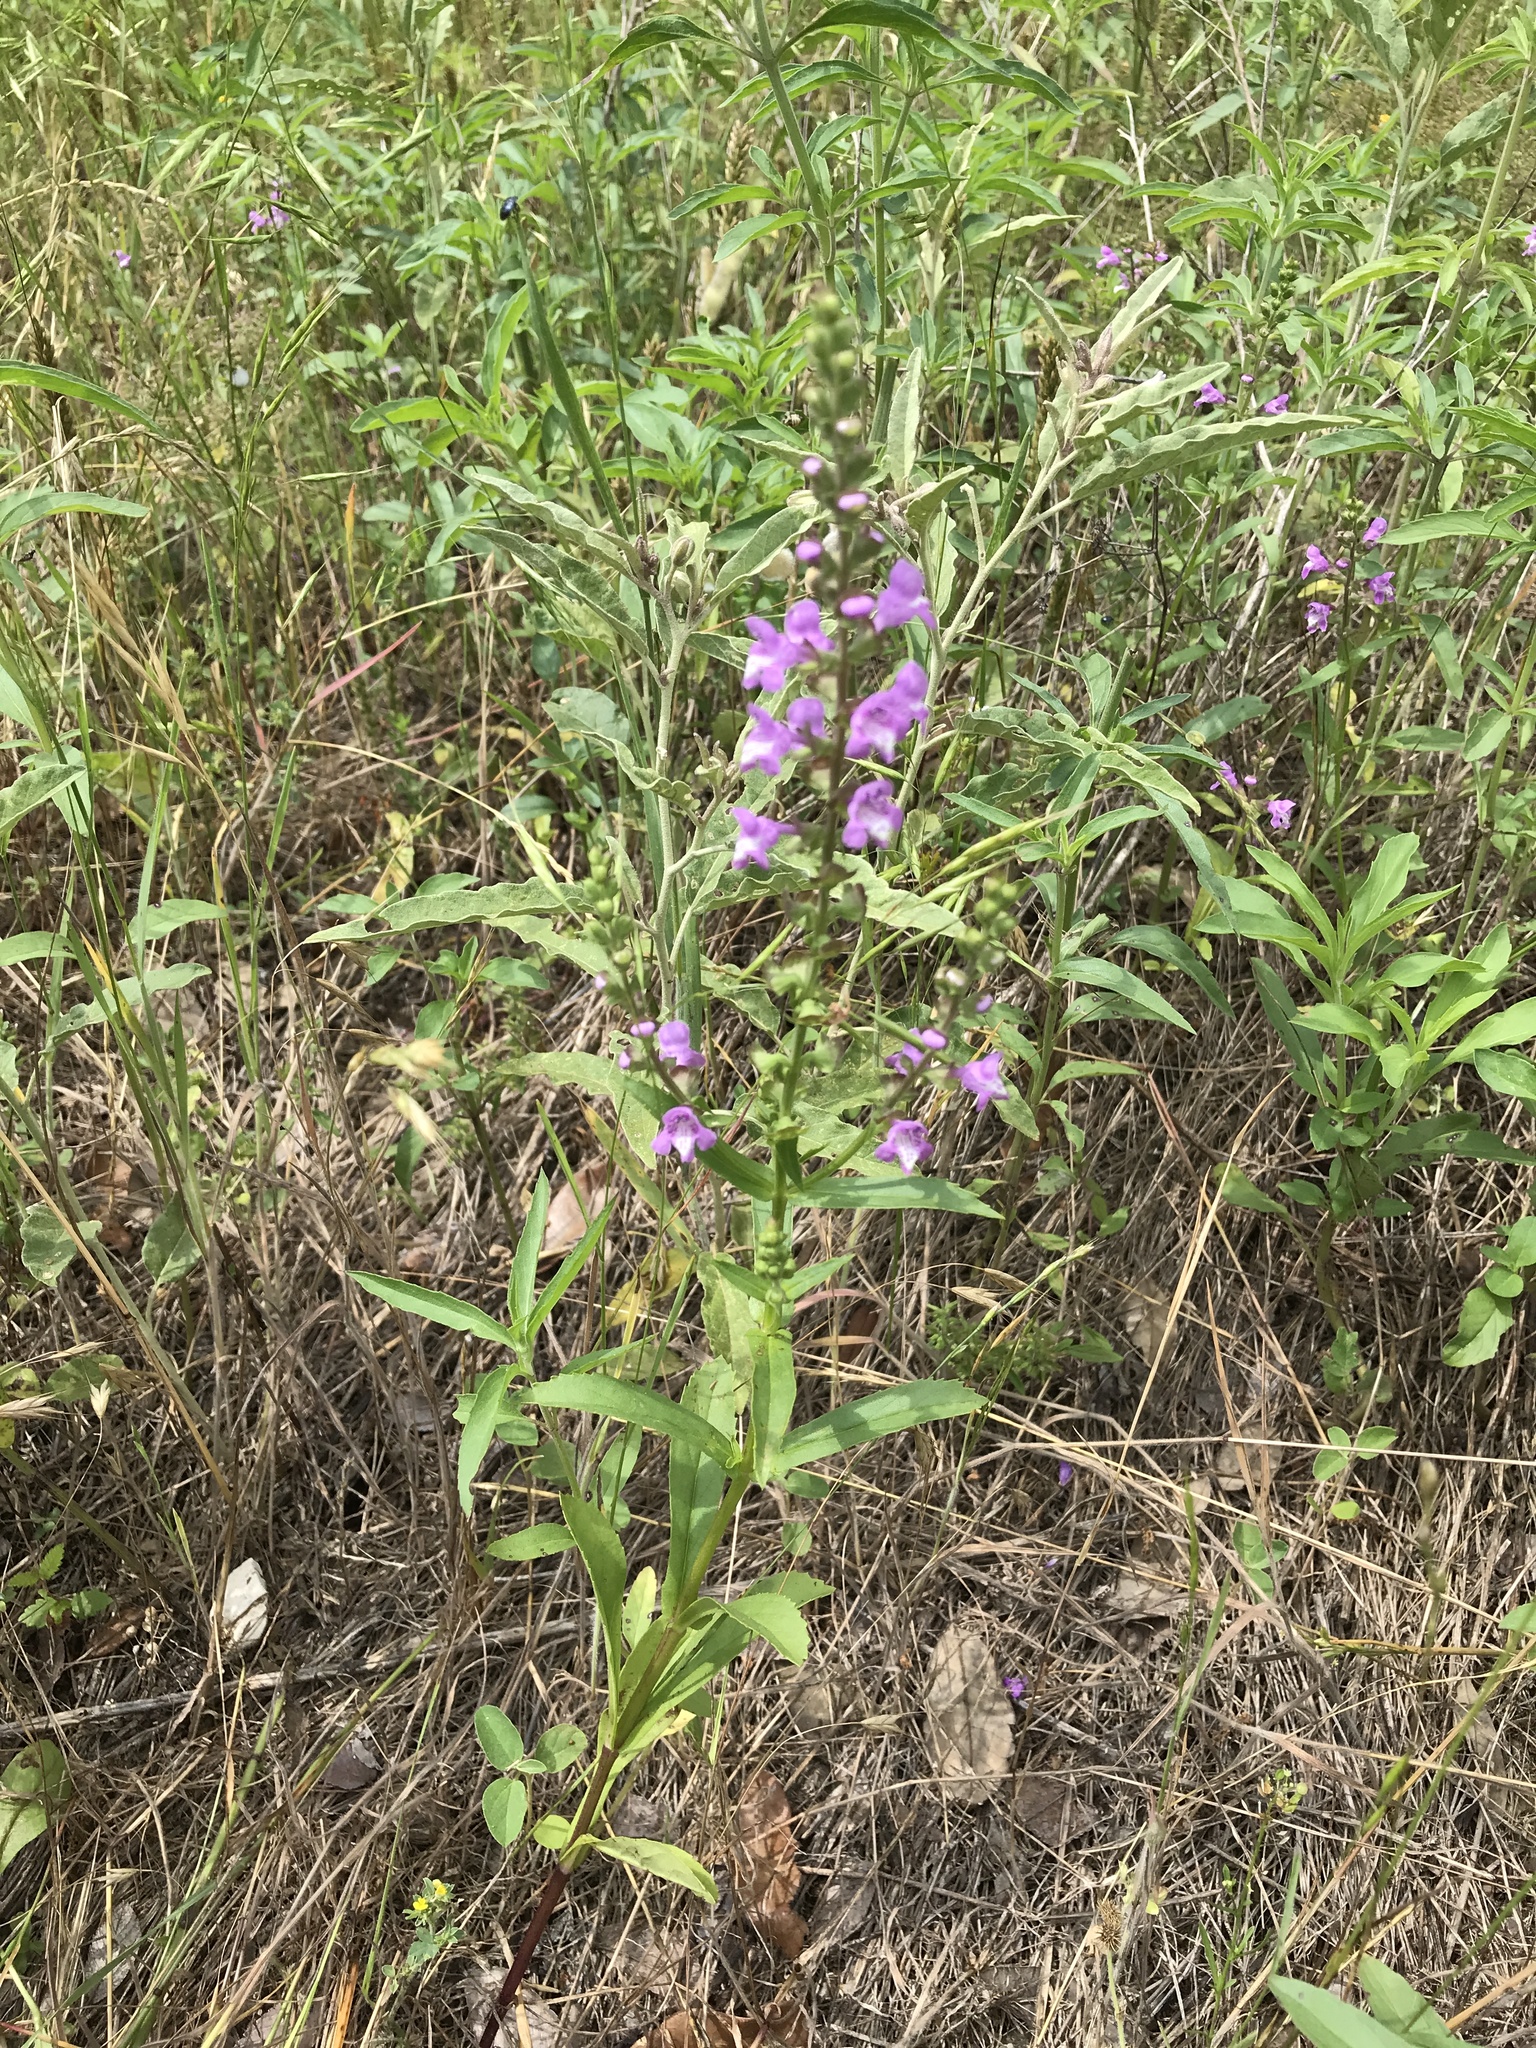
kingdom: Plantae
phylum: Tracheophyta
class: Magnoliopsida
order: Lamiales
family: Lamiaceae
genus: Warnockia
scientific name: Warnockia scutellarioides
